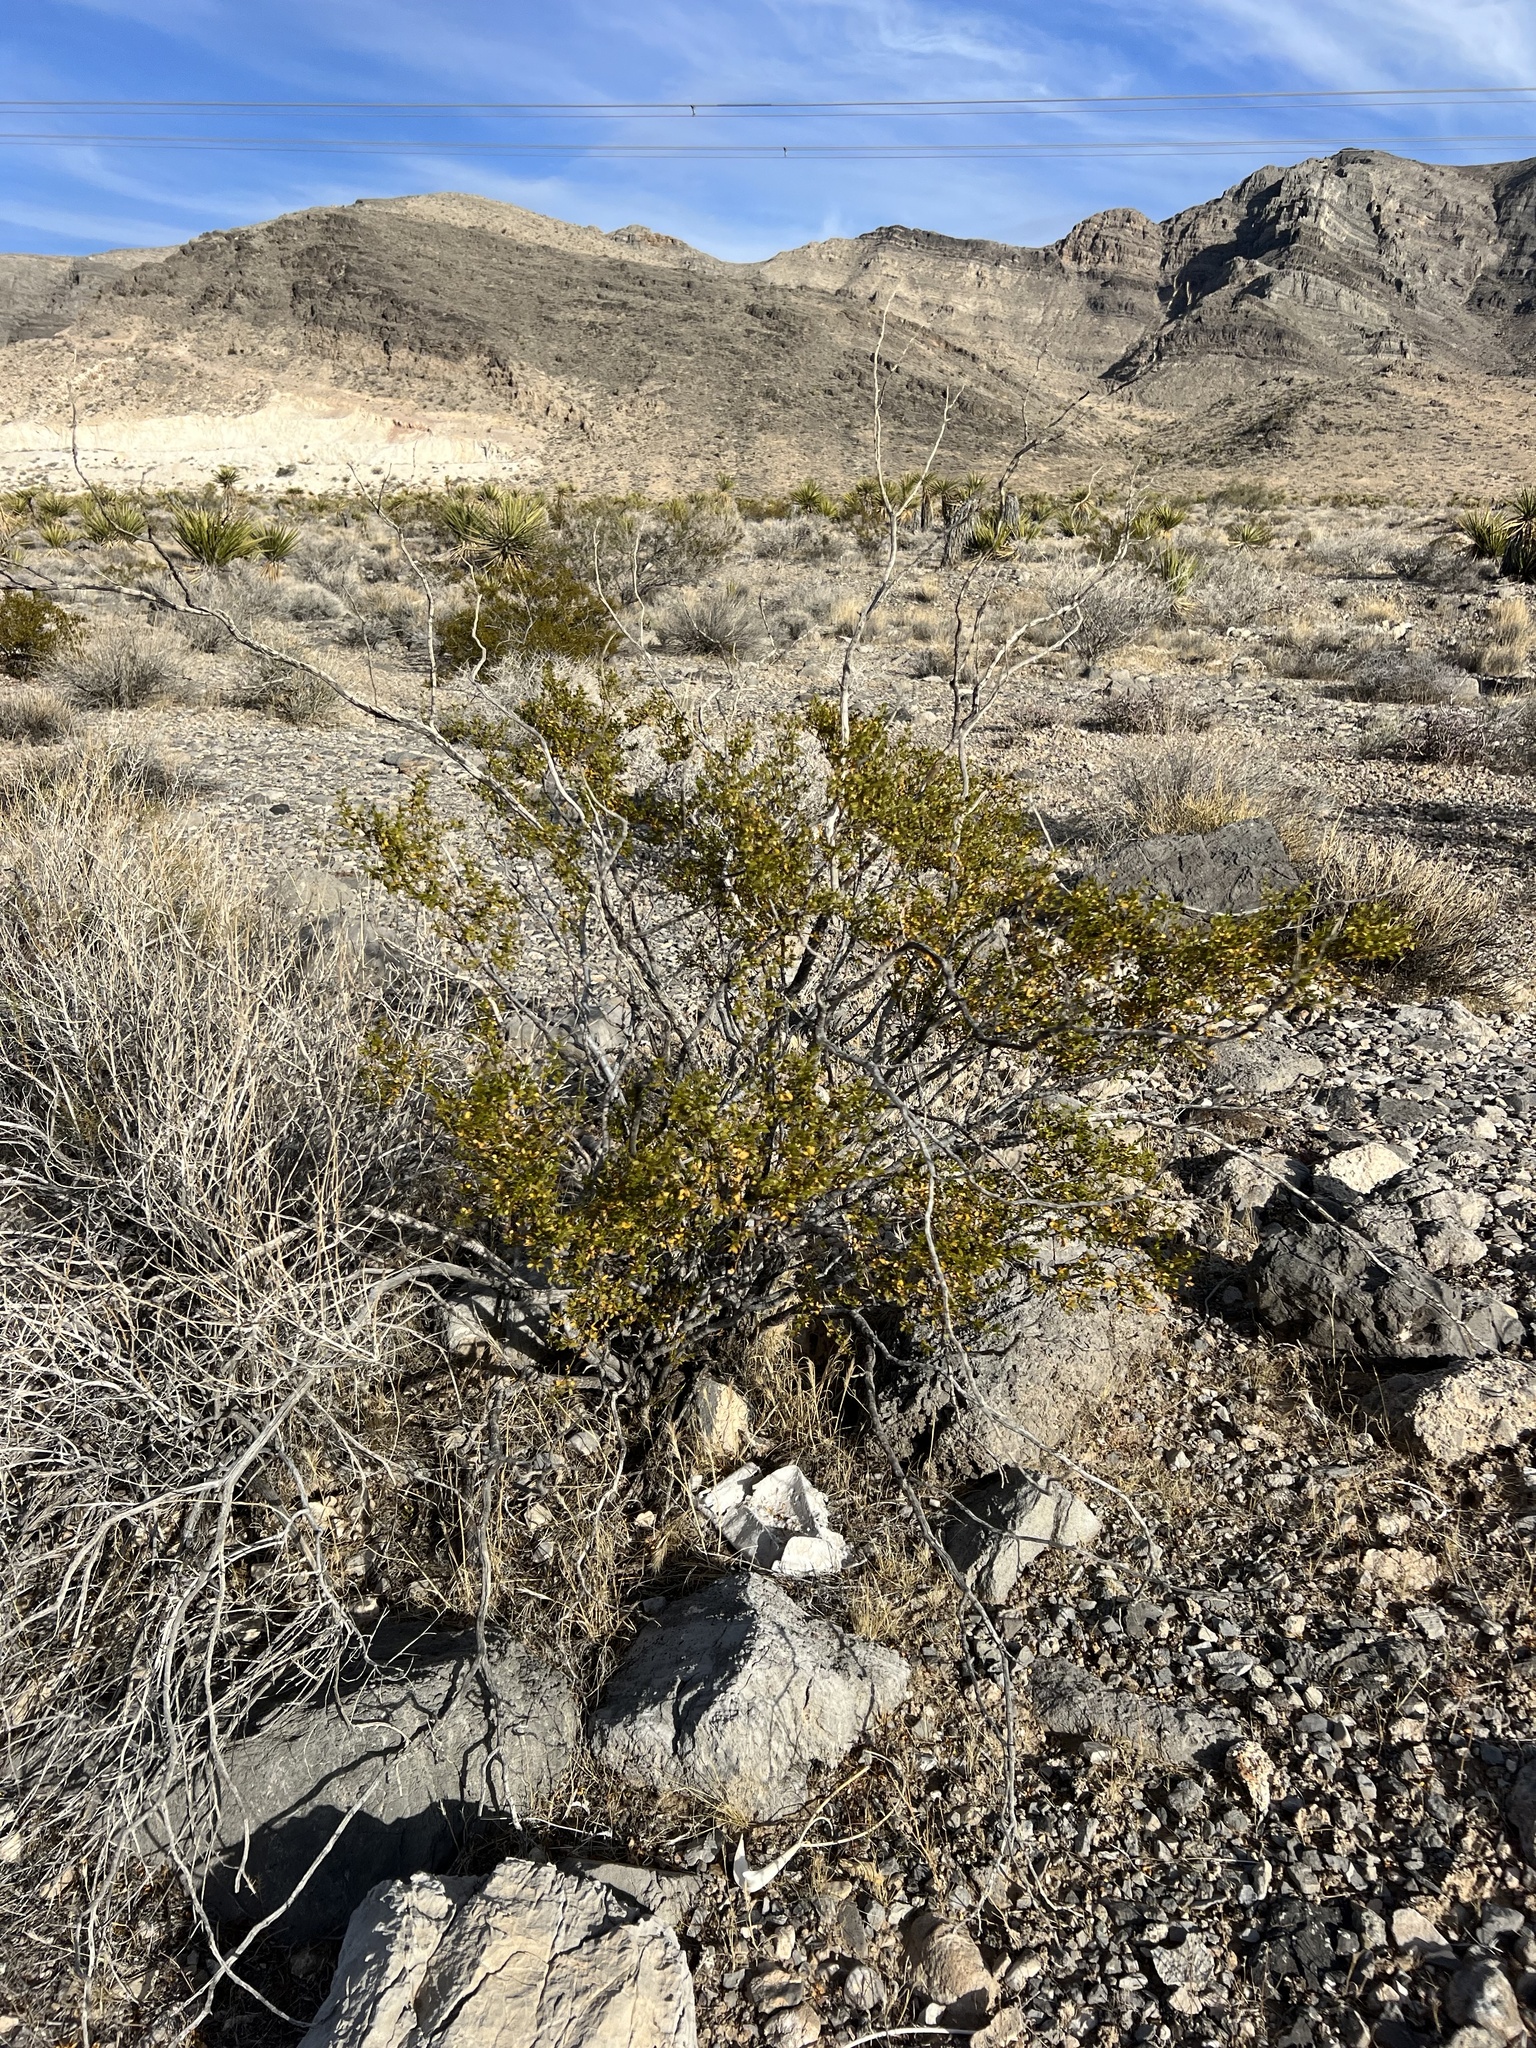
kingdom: Plantae
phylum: Tracheophyta
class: Magnoliopsida
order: Zygophyllales
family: Zygophyllaceae
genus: Larrea
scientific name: Larrea tridentata
